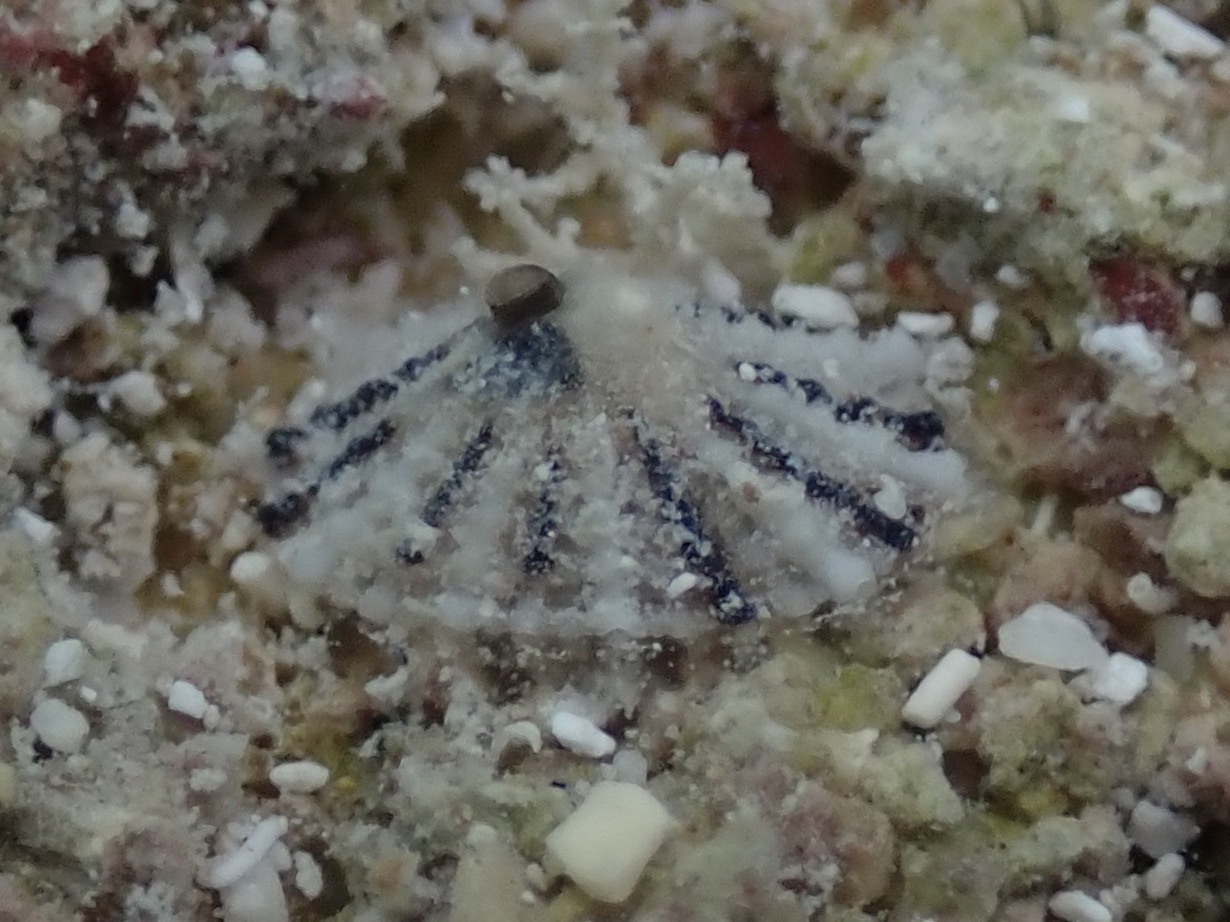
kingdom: Animalia
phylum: Mollusca
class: Gastropoda
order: Lepetellida
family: Fissurellidae
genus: Diodora
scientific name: Diodora dysoni
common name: Dyson's keyhole limpet
